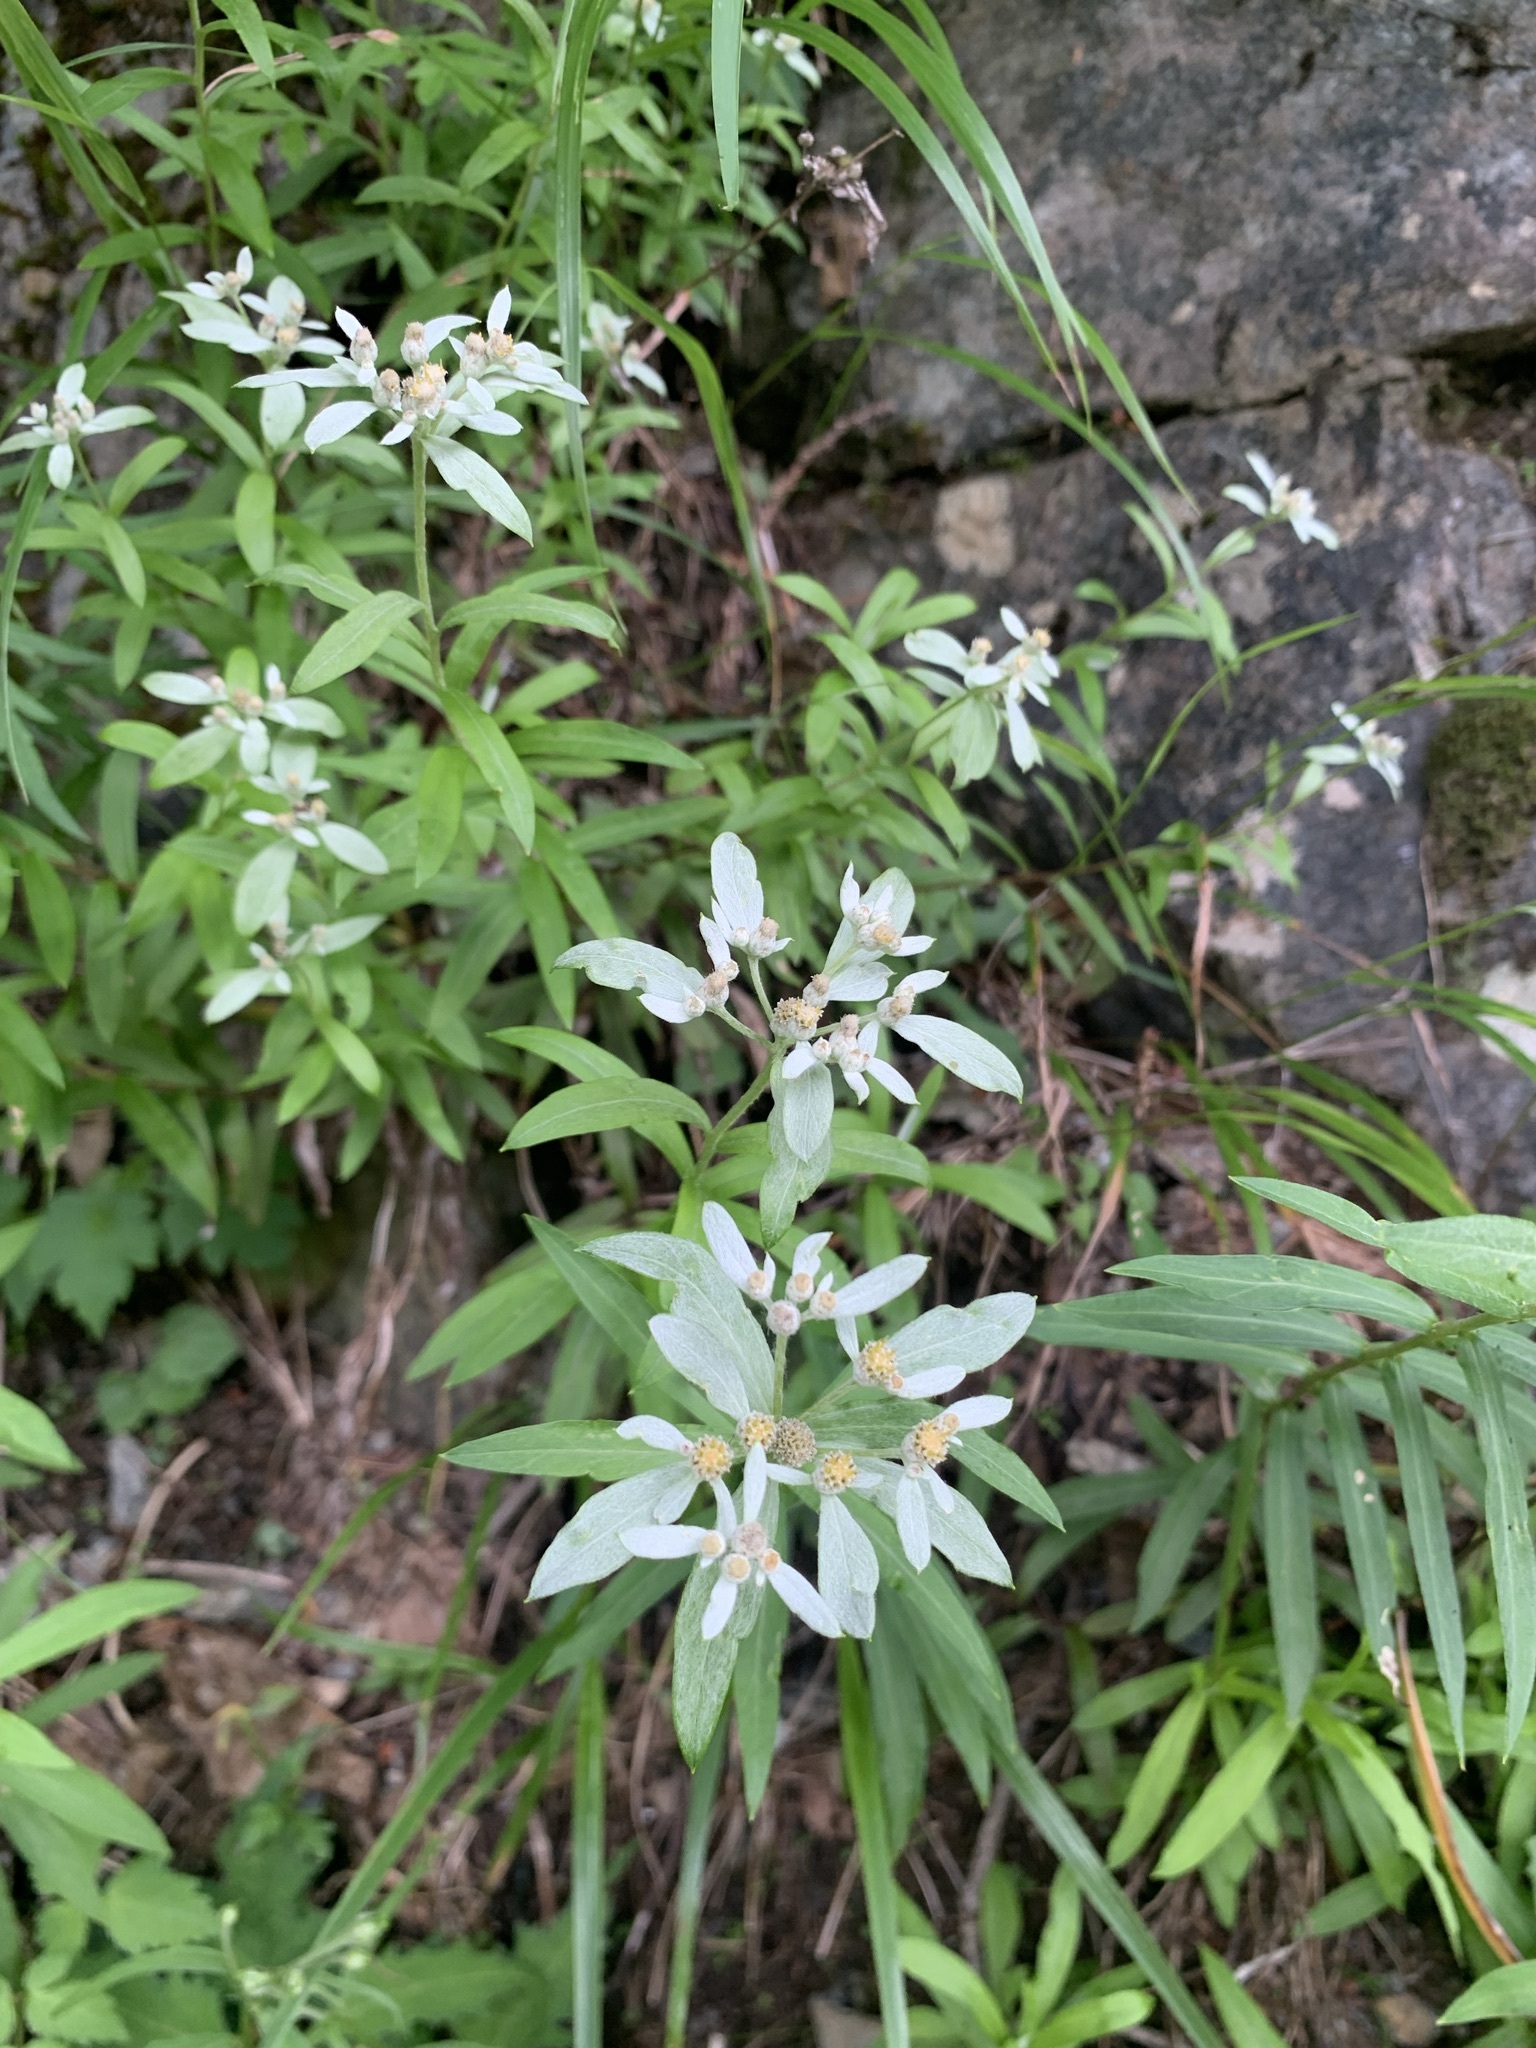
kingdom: Plantae
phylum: Tracheophyta
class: Magnoliopsida
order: Asterales
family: Asteraceae
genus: Leontopodium
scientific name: Leontopodium japonicum
